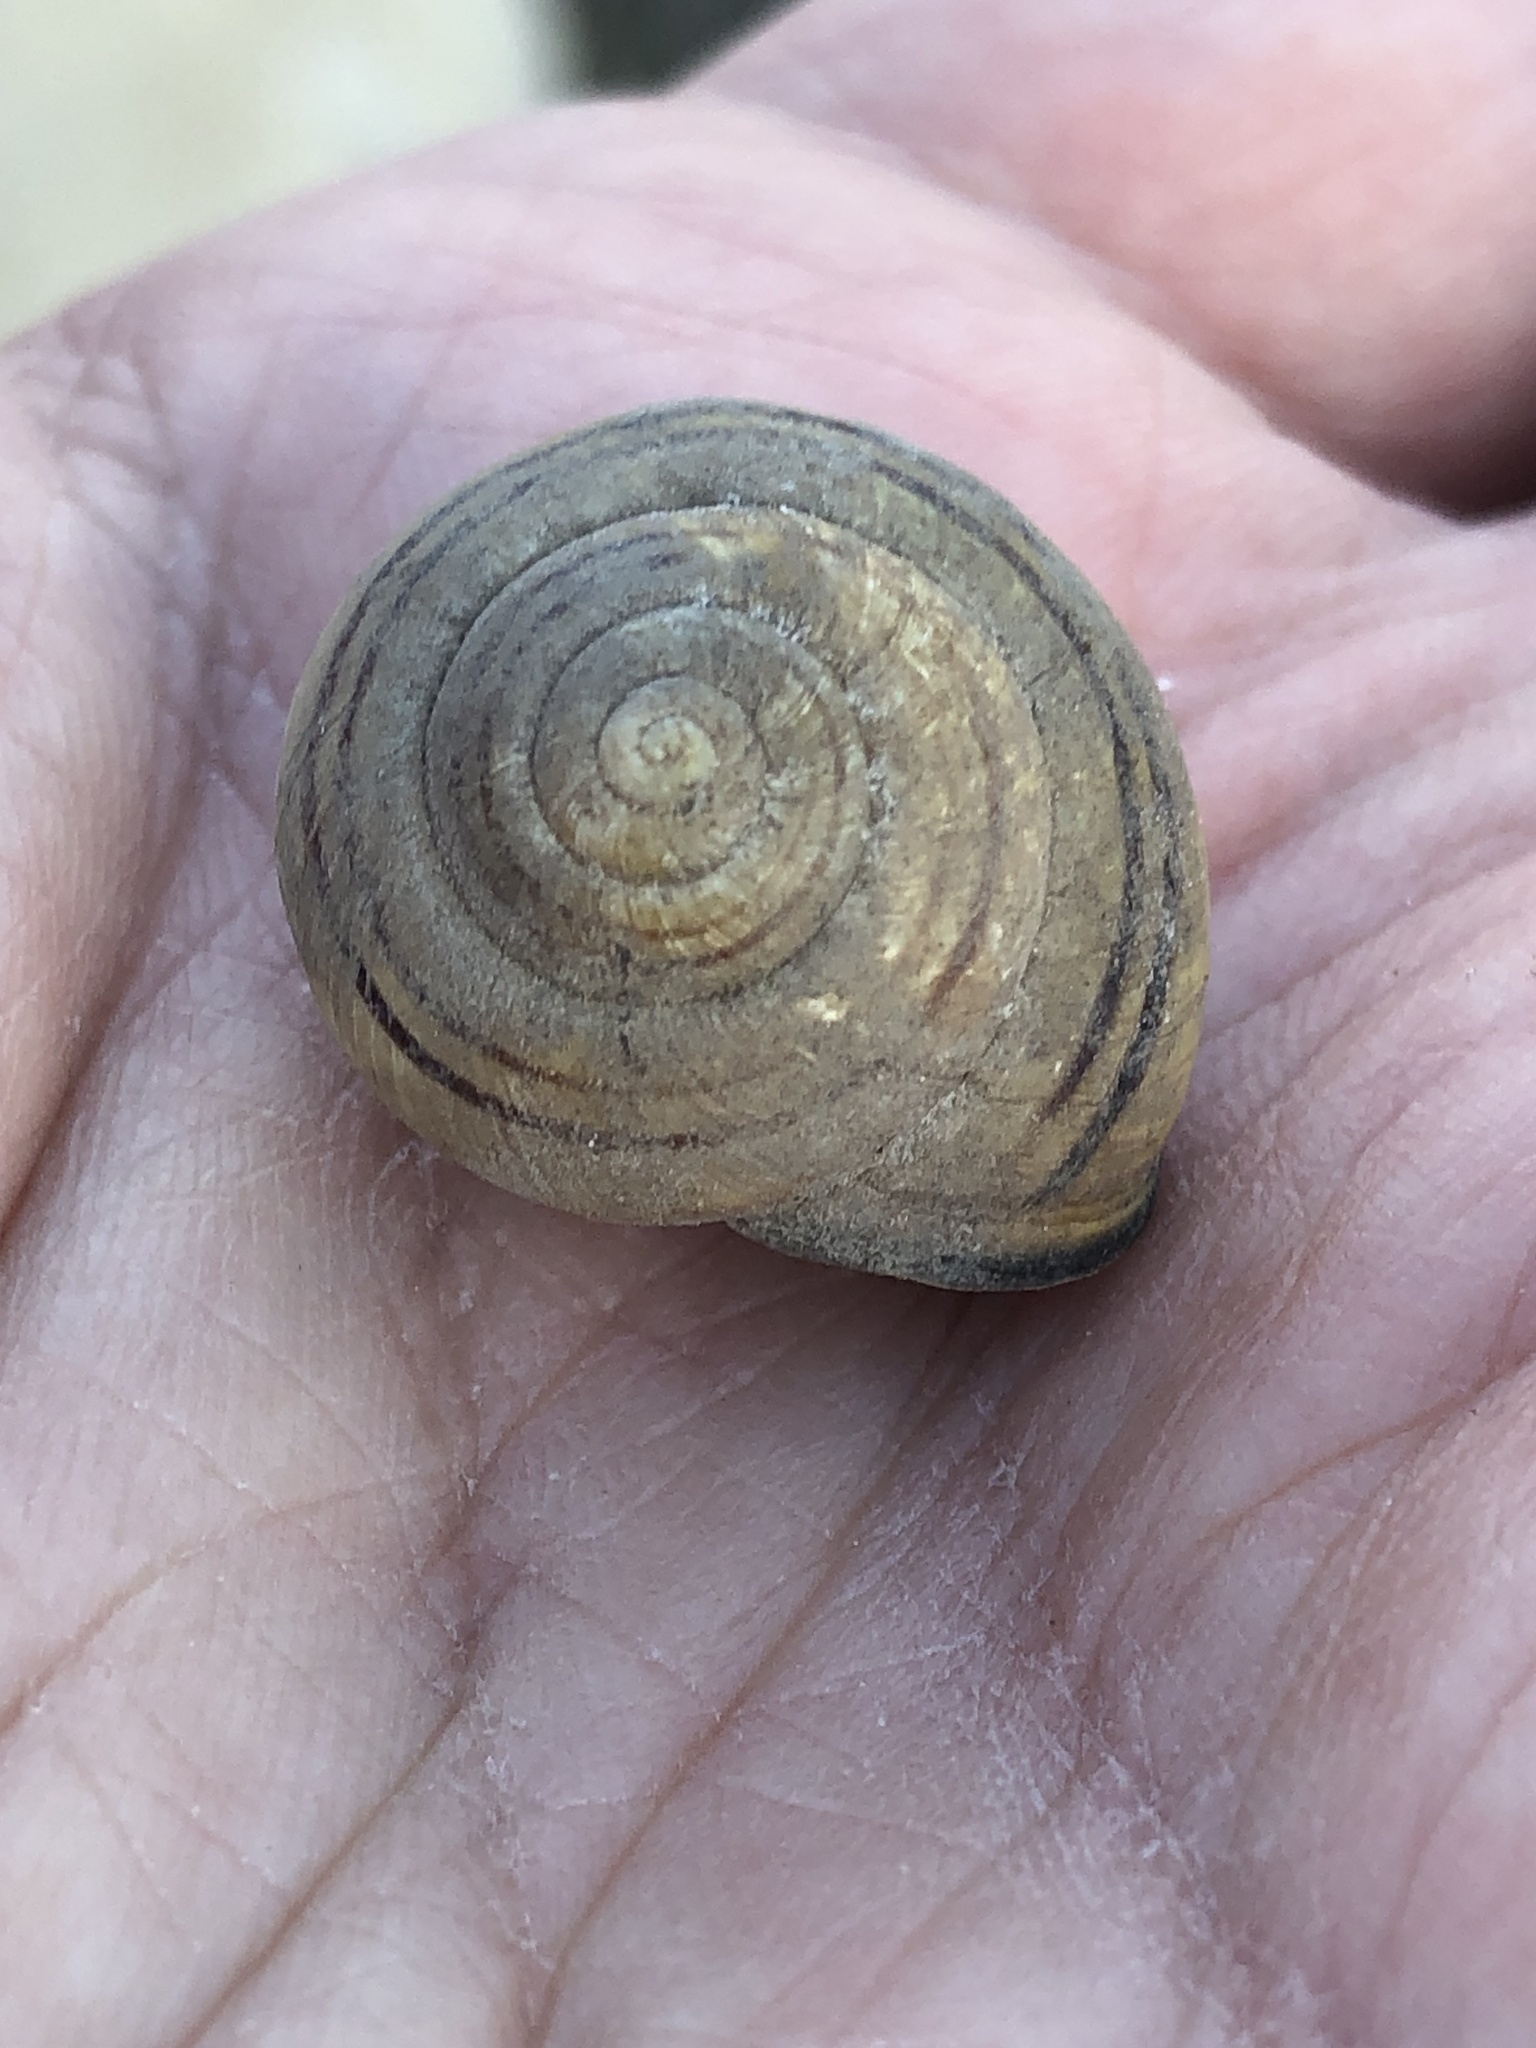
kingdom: Animalia
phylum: Mollusca
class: Gastropoda
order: Stylommatophora
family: Helicidae
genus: Cepaea
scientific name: Cepaea nemoralis
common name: Grovesnail
